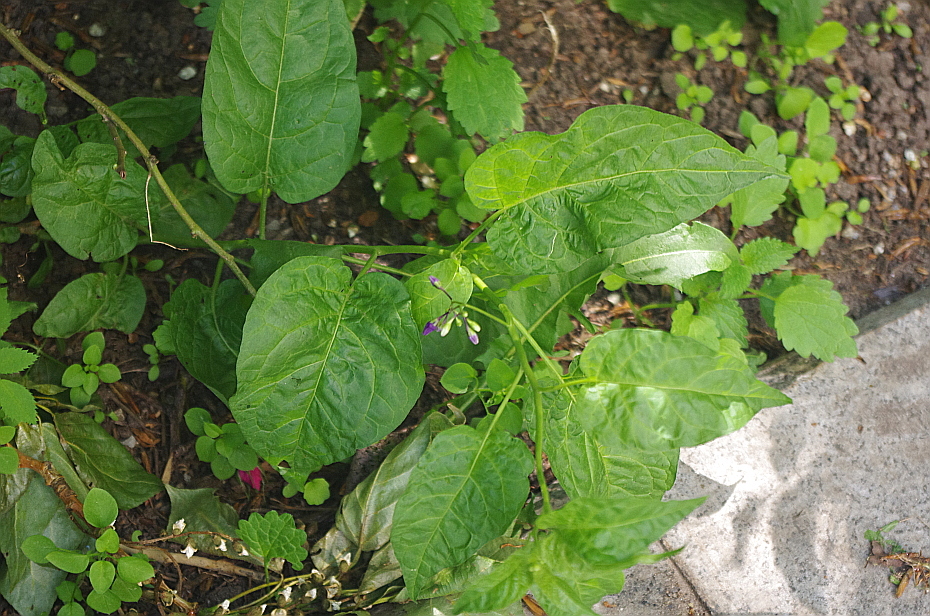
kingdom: Plantae
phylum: Tracheophyta
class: Magnoliopsida
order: Solanales
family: Solanaceae
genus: Solanum
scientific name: Solanum dulcamara
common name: Climbing nightshade
